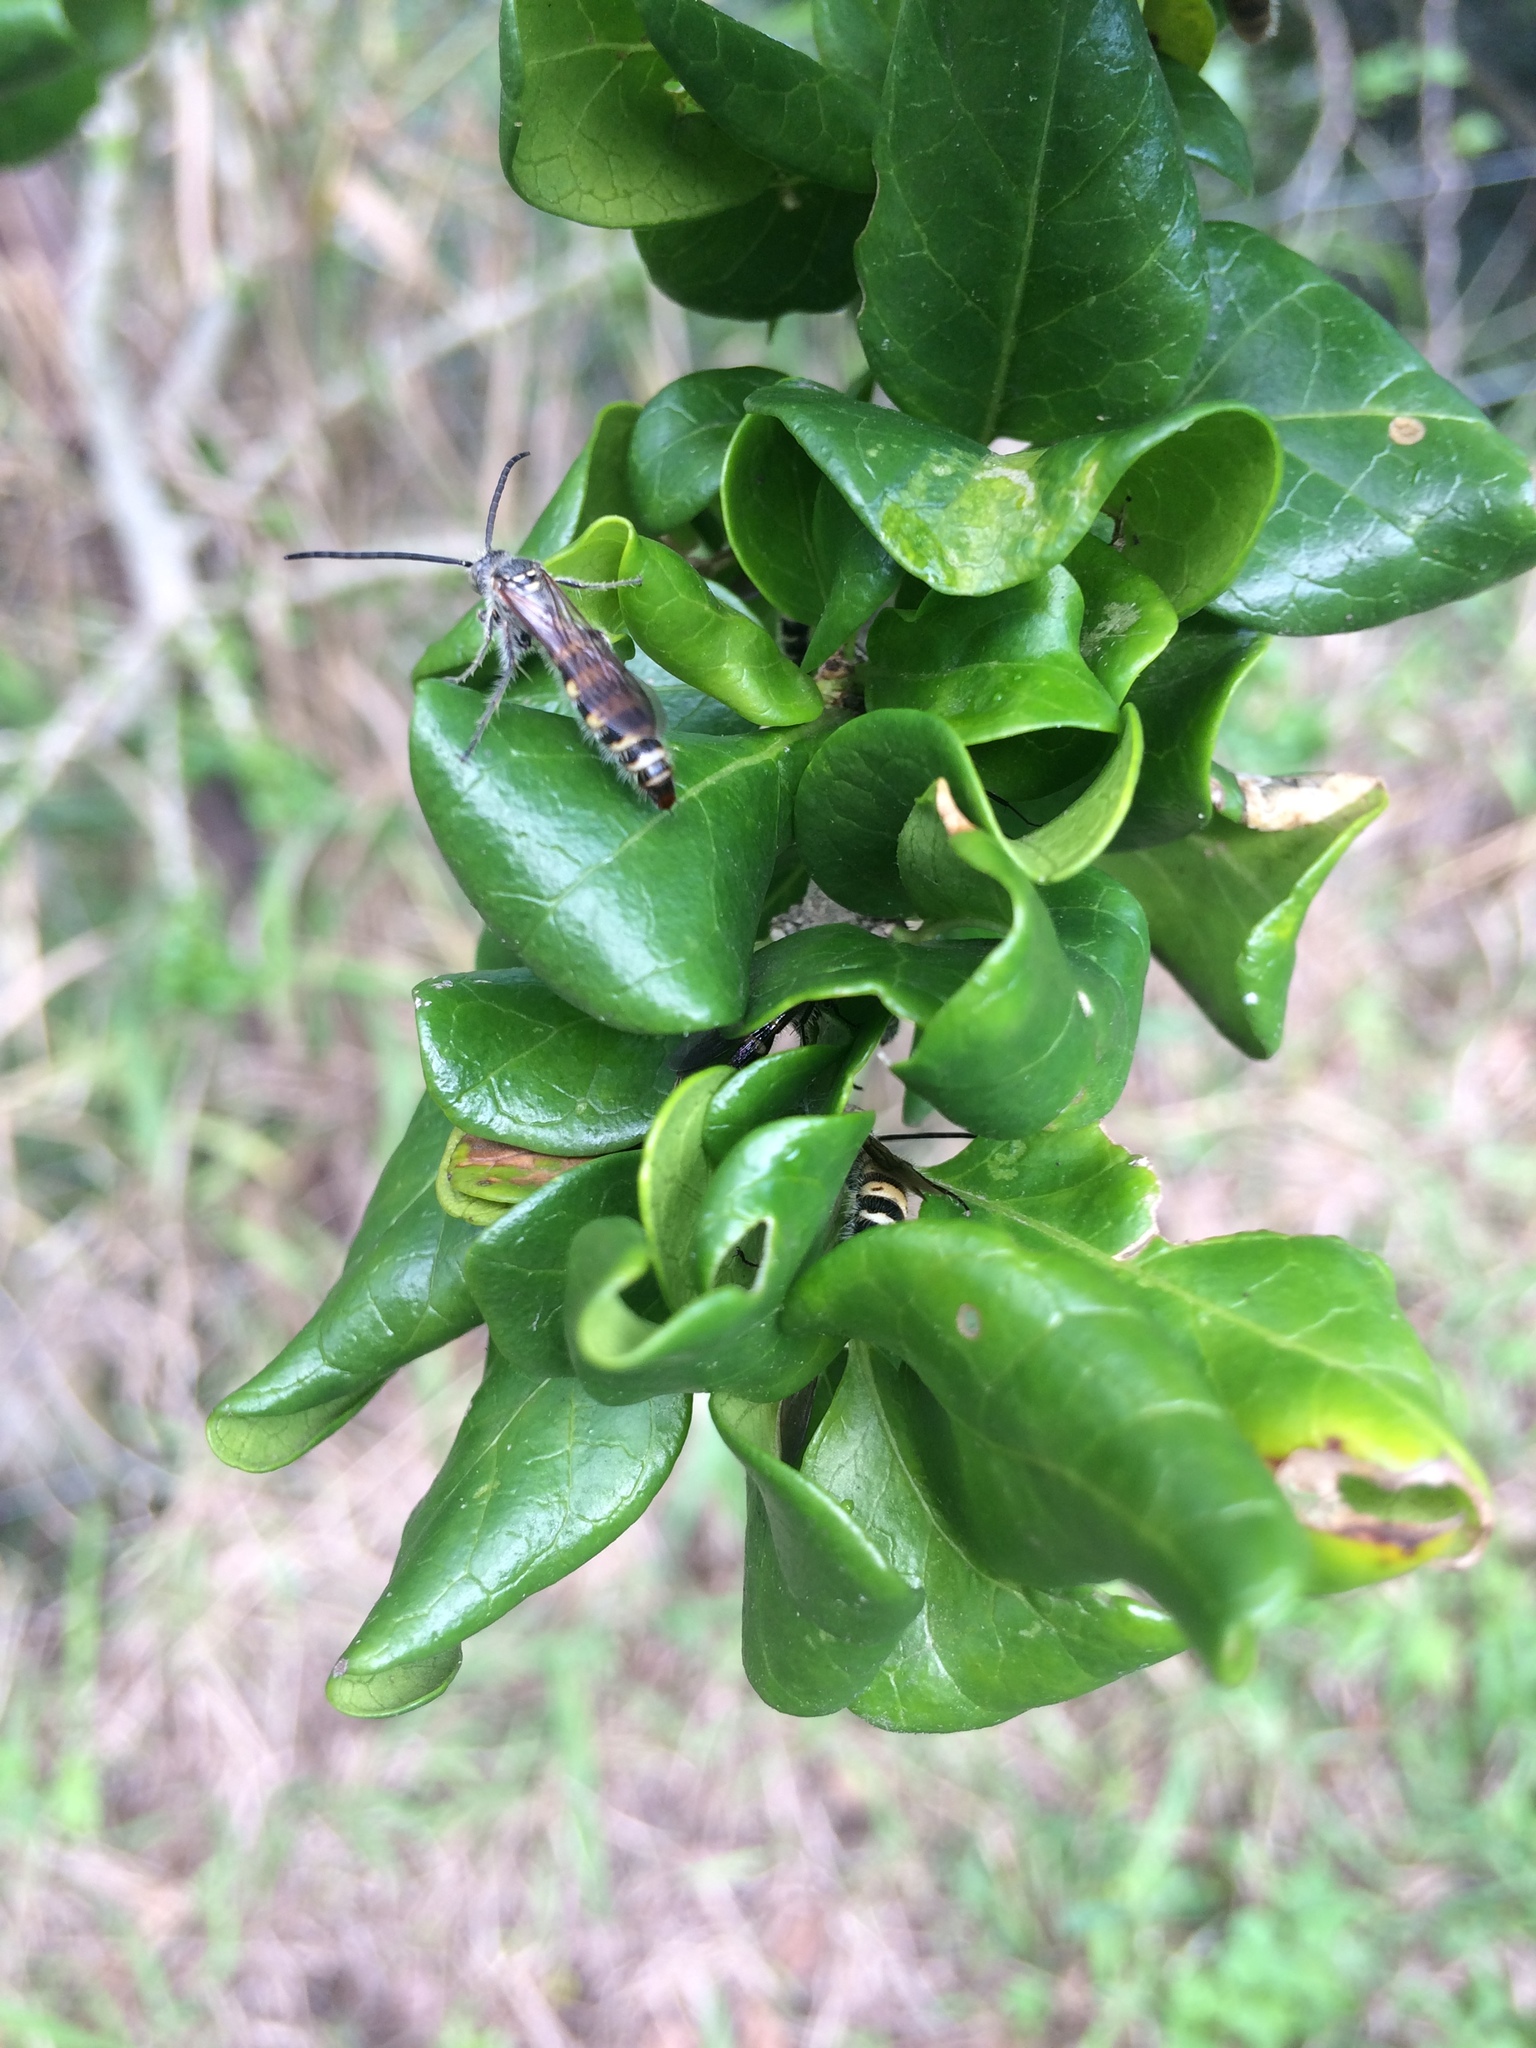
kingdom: Plantae
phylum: Tracheophyta
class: Magnoliopsida
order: Gentianales
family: Rubiaceae
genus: Catunaregam
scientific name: Catunaregam spinosa
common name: Emetic-nut
